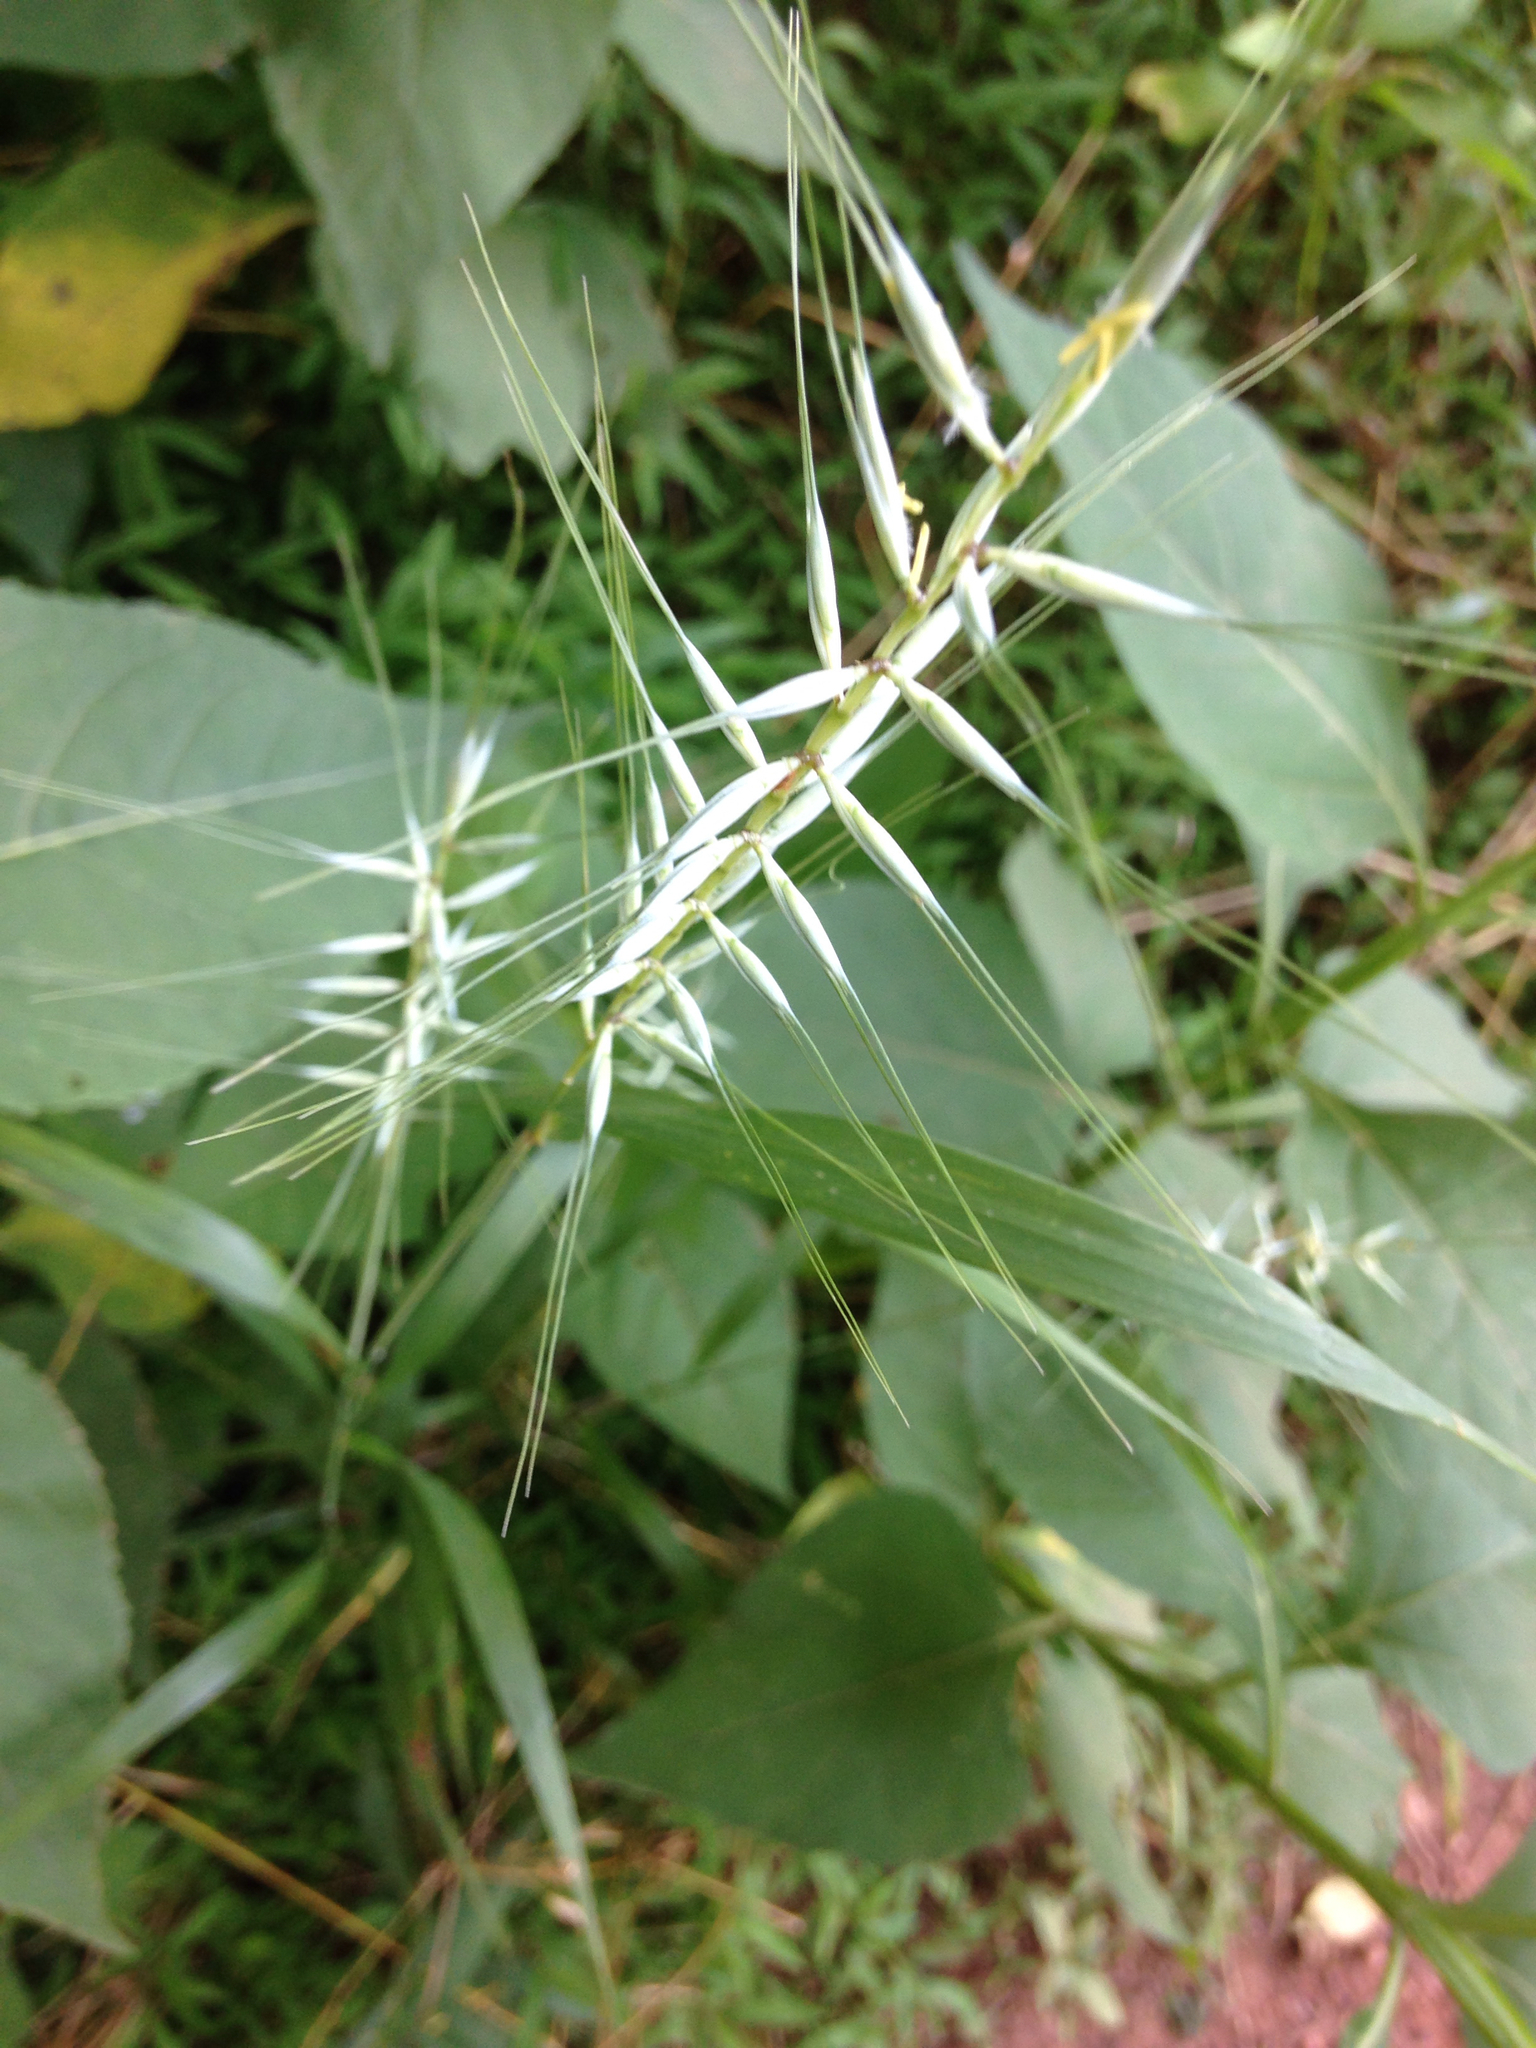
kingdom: Plantae
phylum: Tracheophyta
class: Liliopsida
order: Poales
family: Poaceae
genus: Elymus
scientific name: Elymus hystrix
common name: Bottlebrush grass
